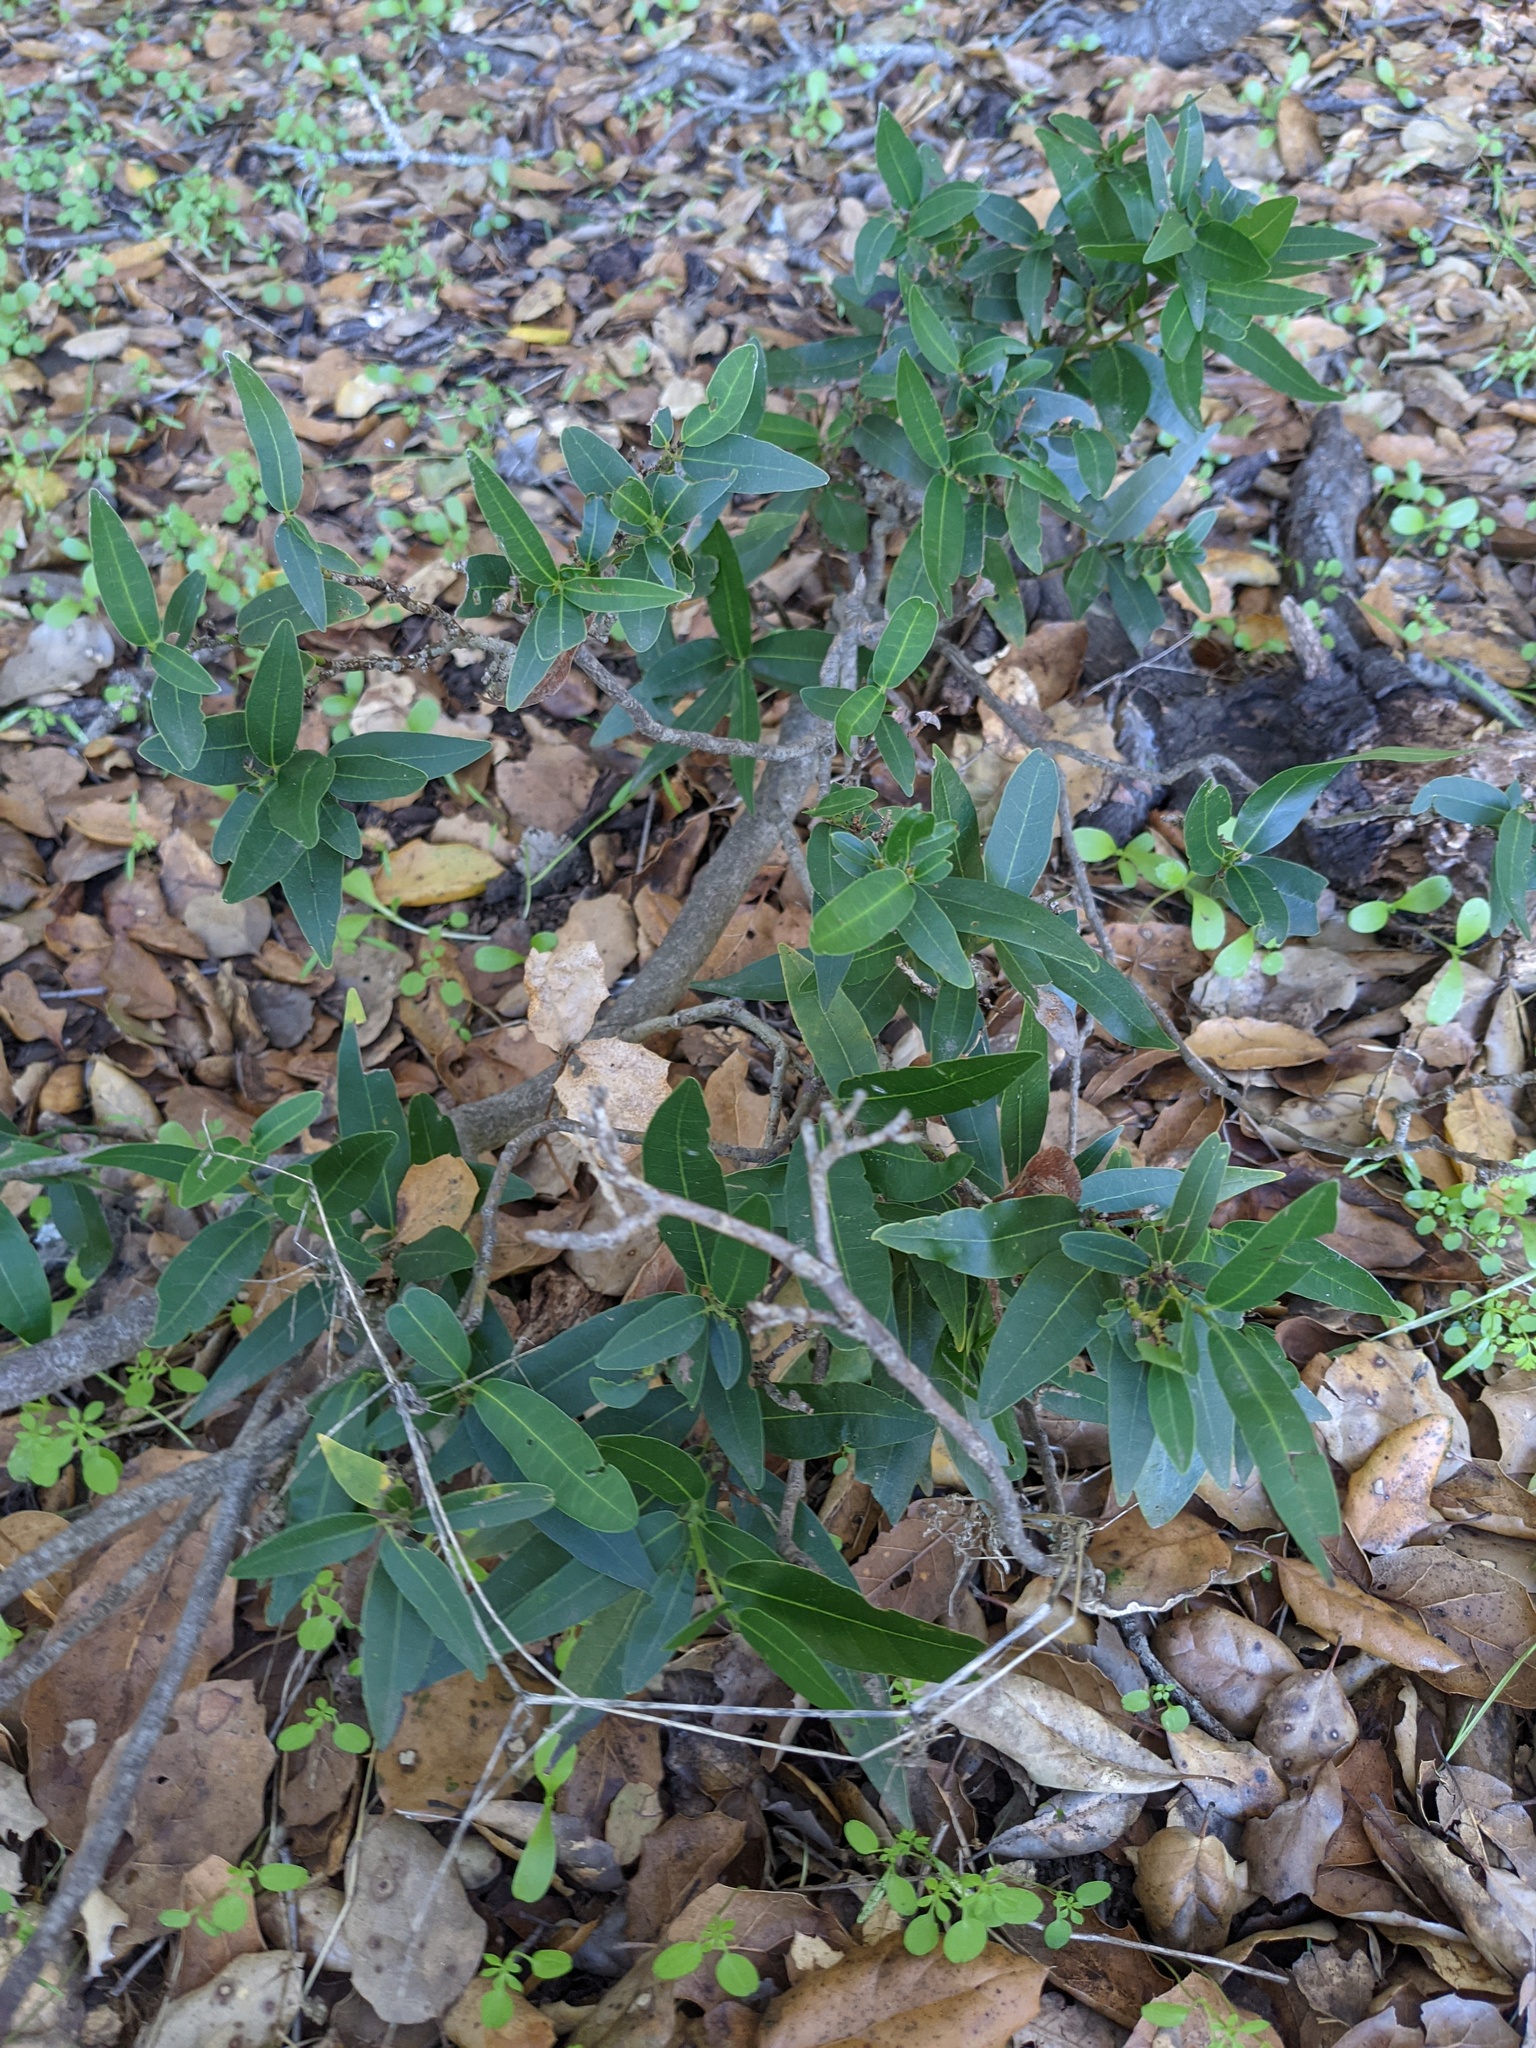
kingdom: Plantae
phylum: Tracheophyta
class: Magnoliopsida
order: Laurales
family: Lauraceae
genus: Umbellularia
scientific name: Umbellularia californica
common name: California bay
